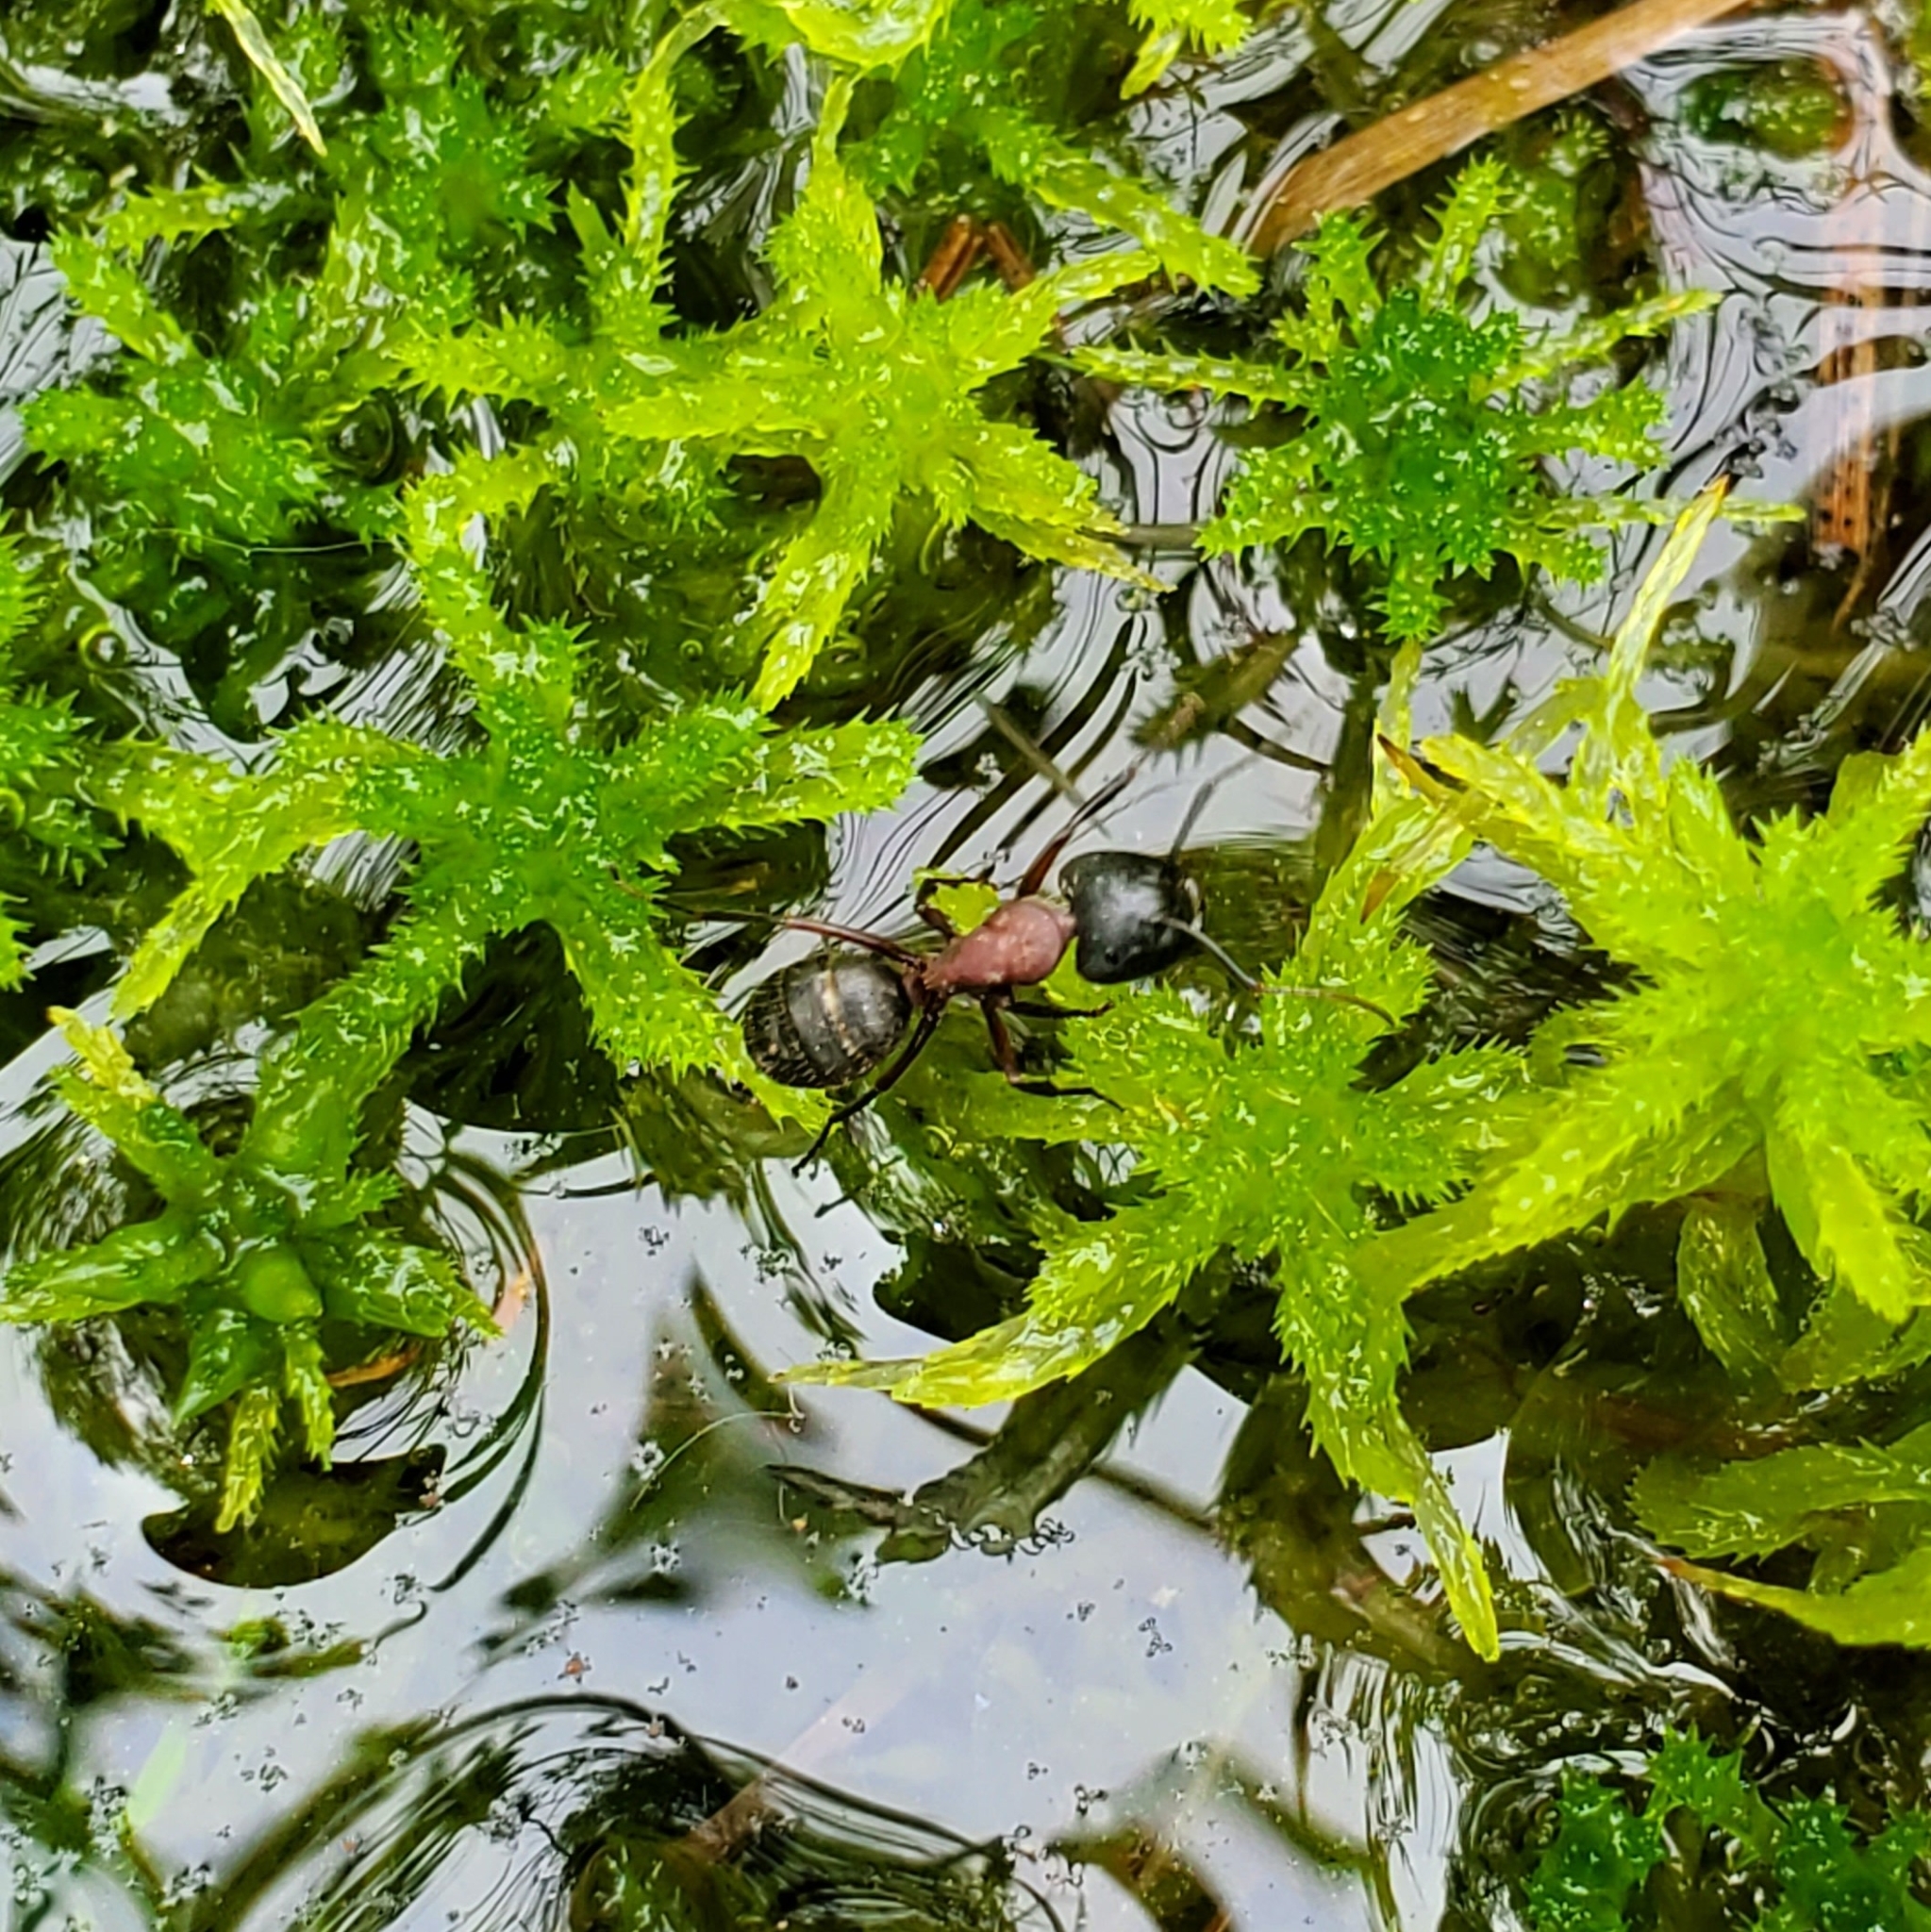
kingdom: Animalia
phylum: Arthropoda
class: Insecta
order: Hymenoptera
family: Formicidae
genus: Camponotus
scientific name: Camponotus novaeboracensis
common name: New york carpenter ant
